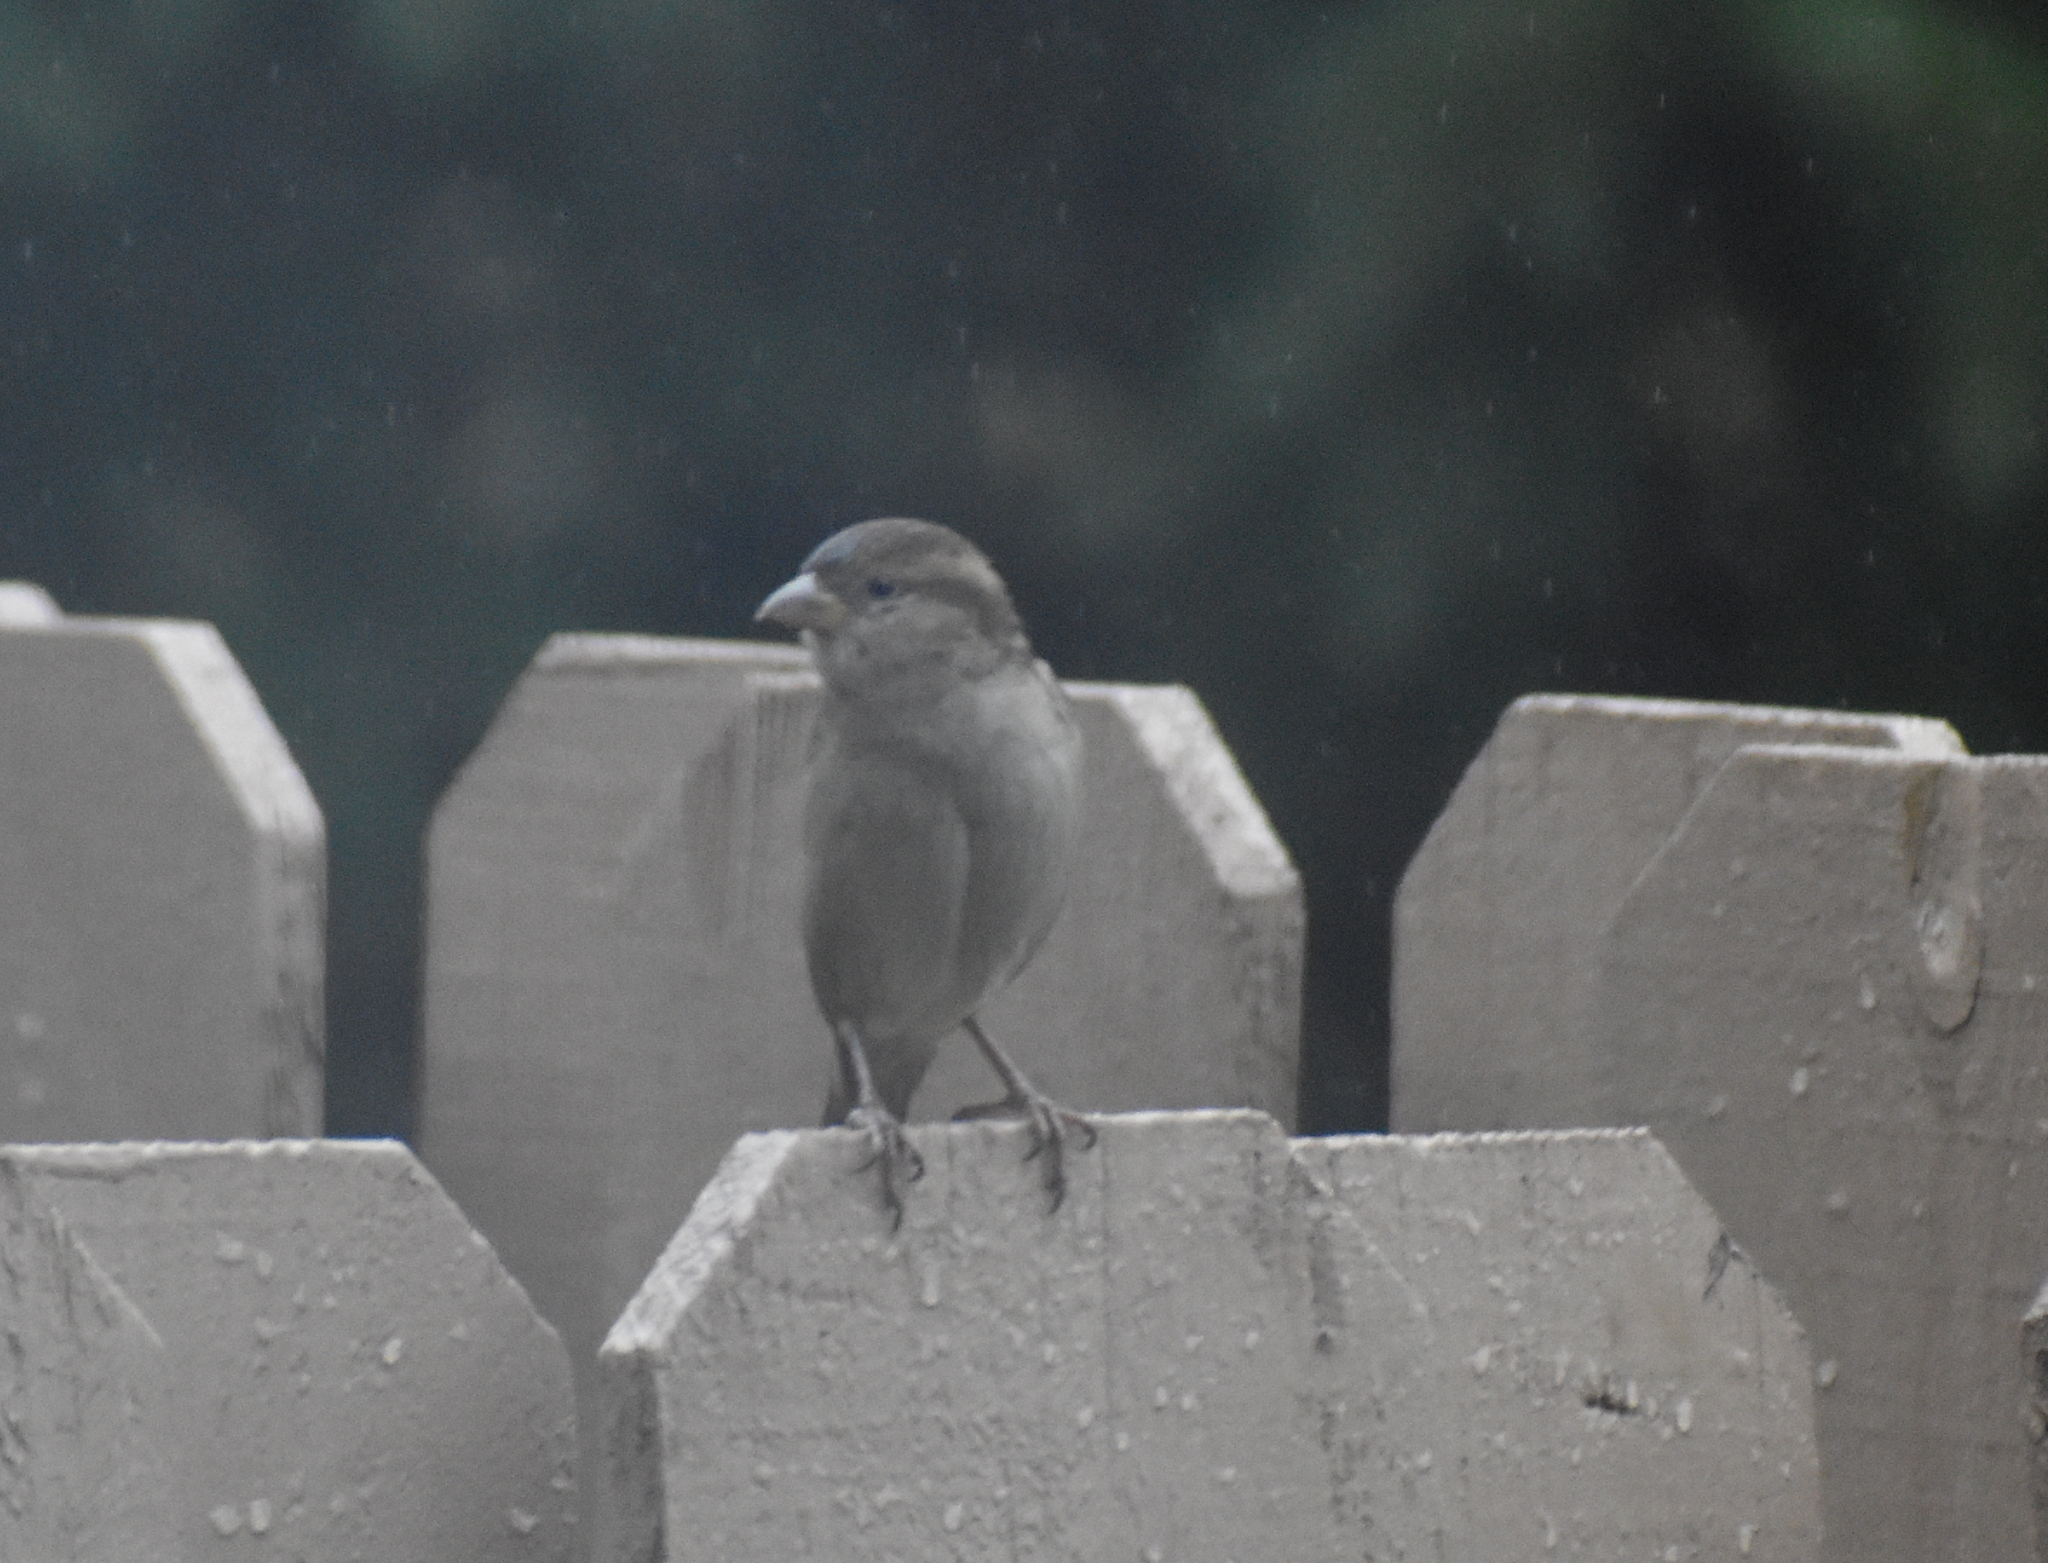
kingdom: Animalia
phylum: Chordata
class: Aves
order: Passeriformes
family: Passeridae
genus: Passer
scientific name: Passer domesticus
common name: House sparrow
